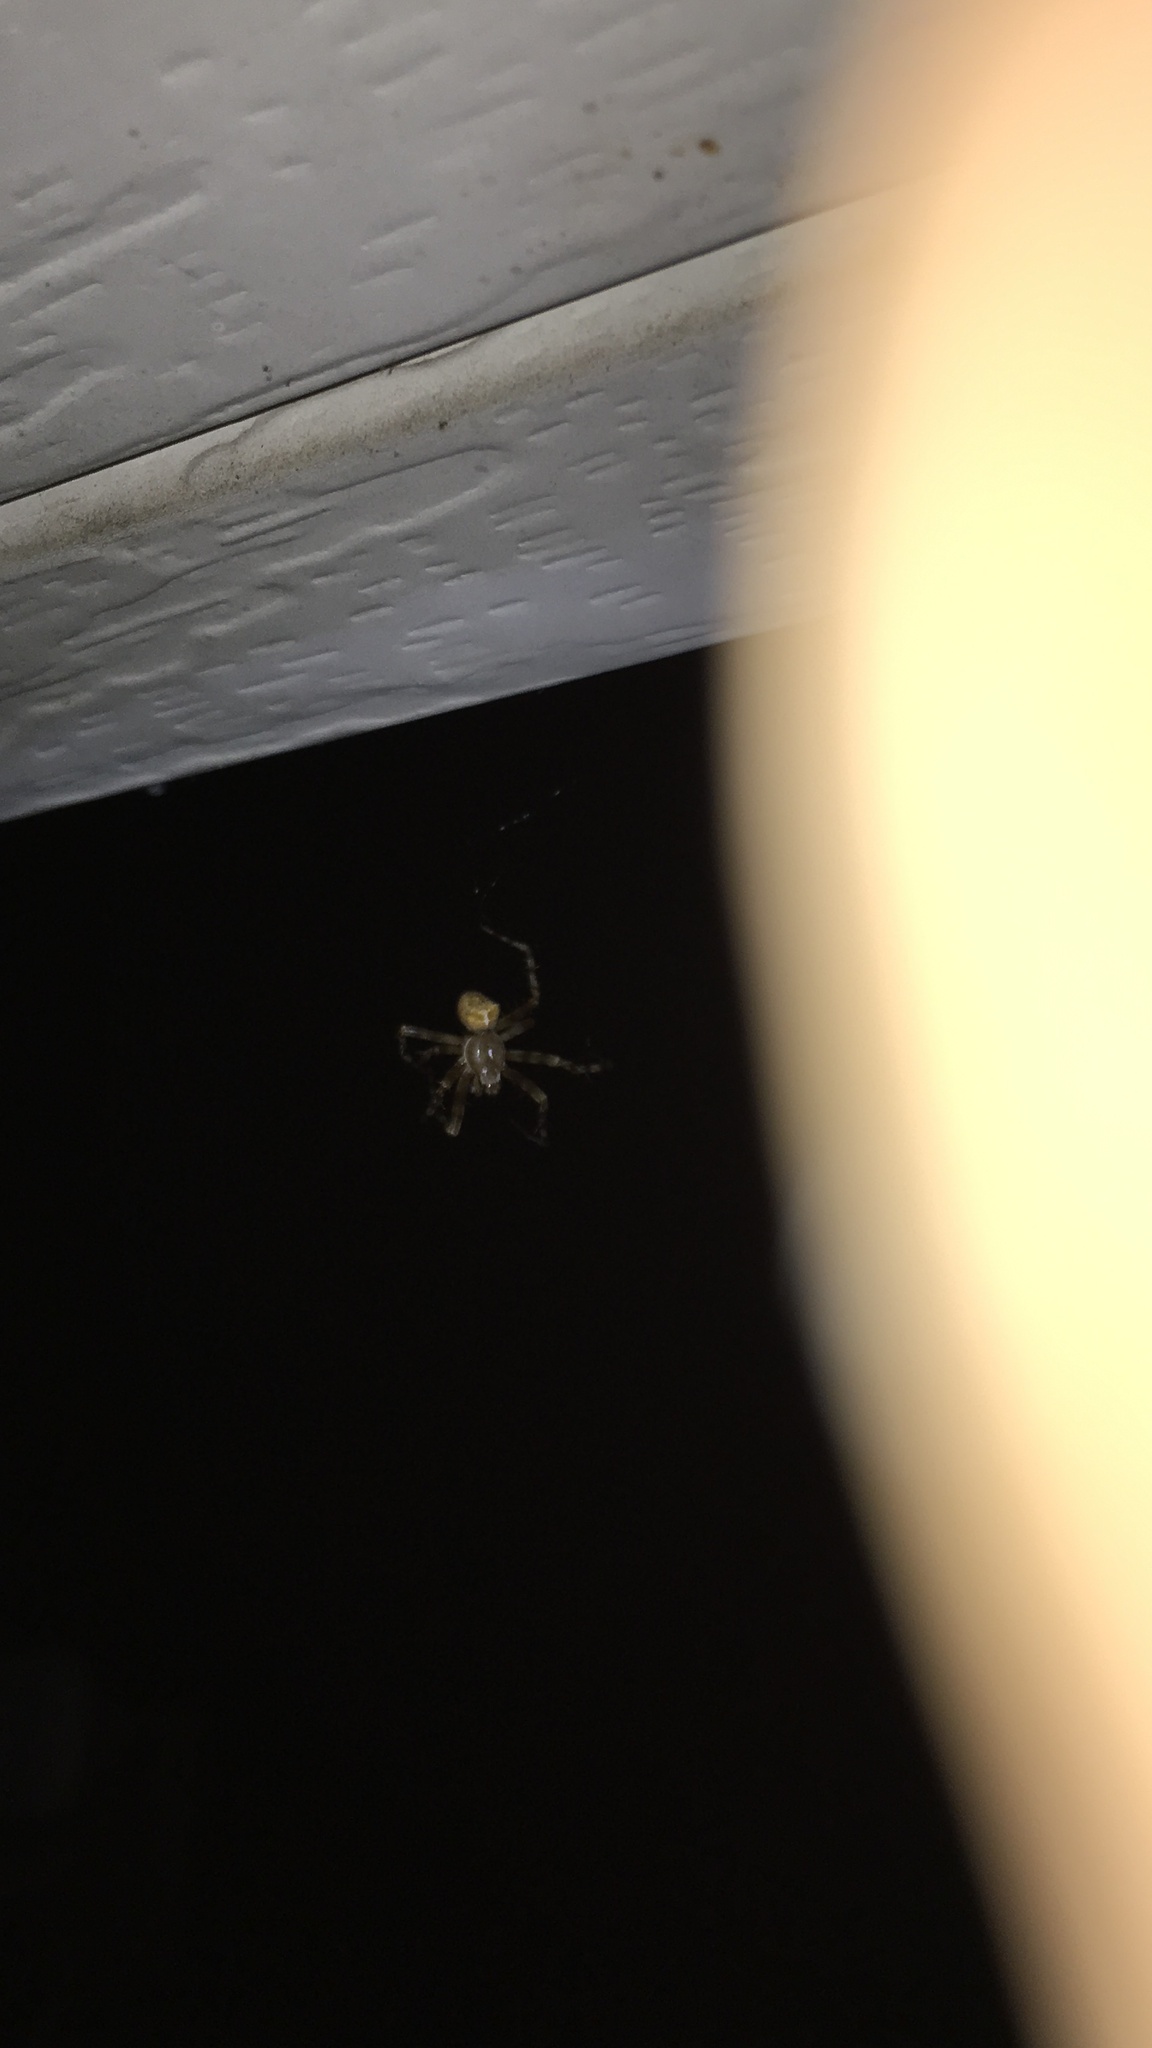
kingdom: Animalia
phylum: Arthropoda
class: Arachnida
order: Araneae
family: Araneidae
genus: Araneus
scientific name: Araneus gemmoides
